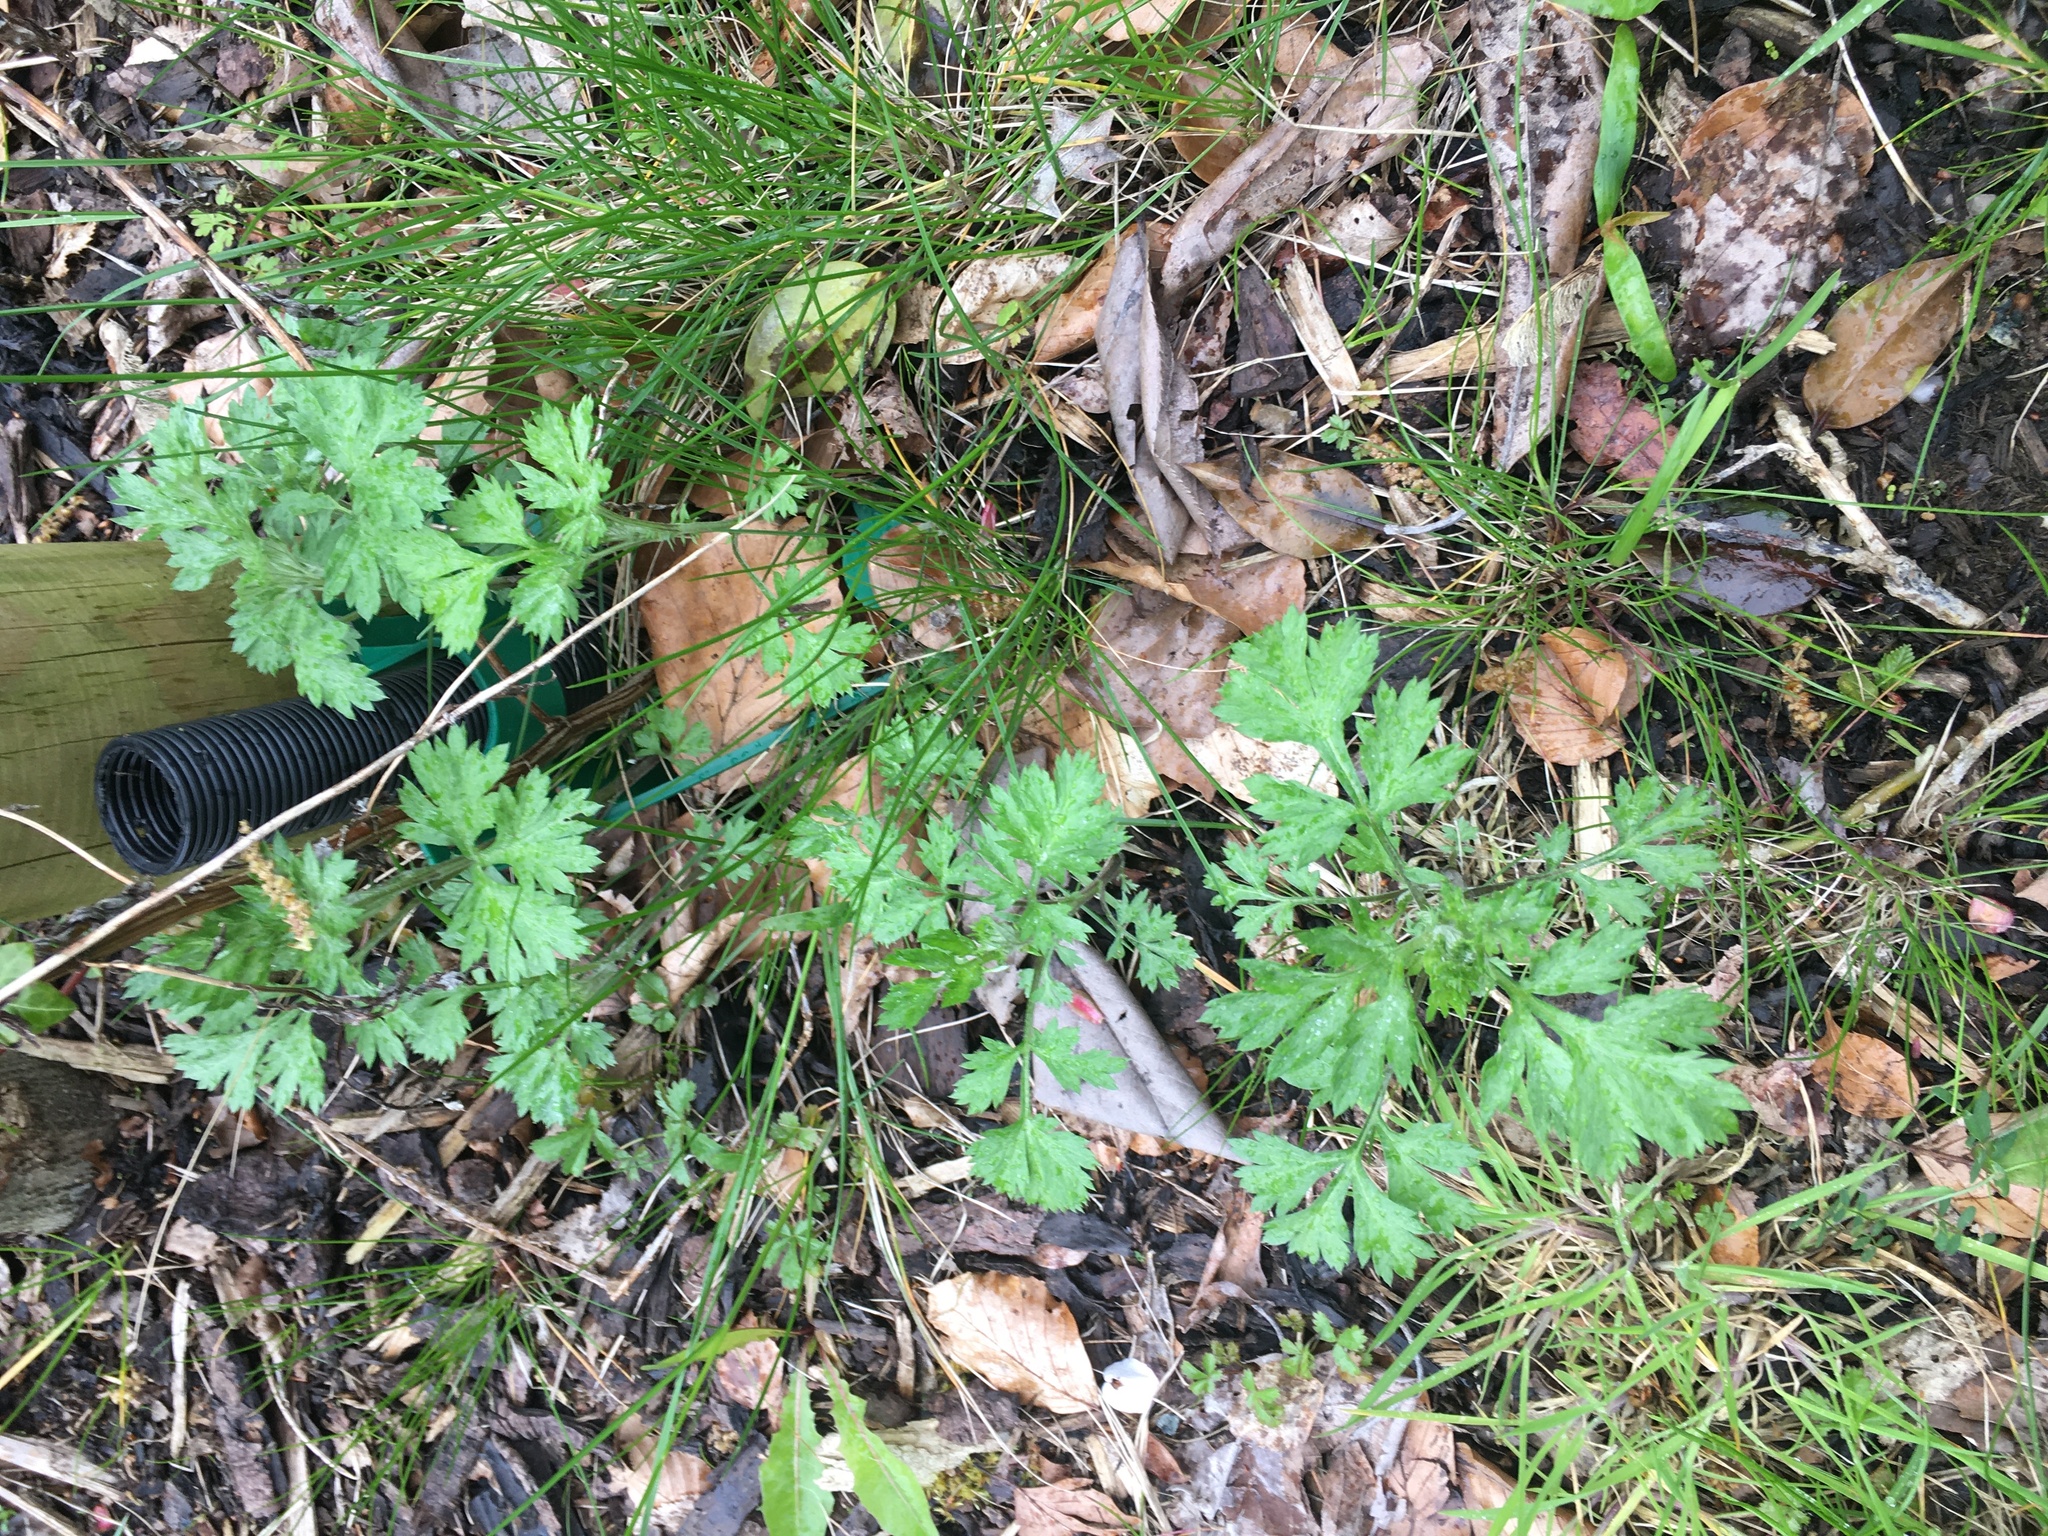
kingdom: Plantae
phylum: Tracheophyta
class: Magnoliopsida
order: Asterales
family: Asteraceae
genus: Artemisia
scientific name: Artemisia vulgaris
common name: Mugwort
